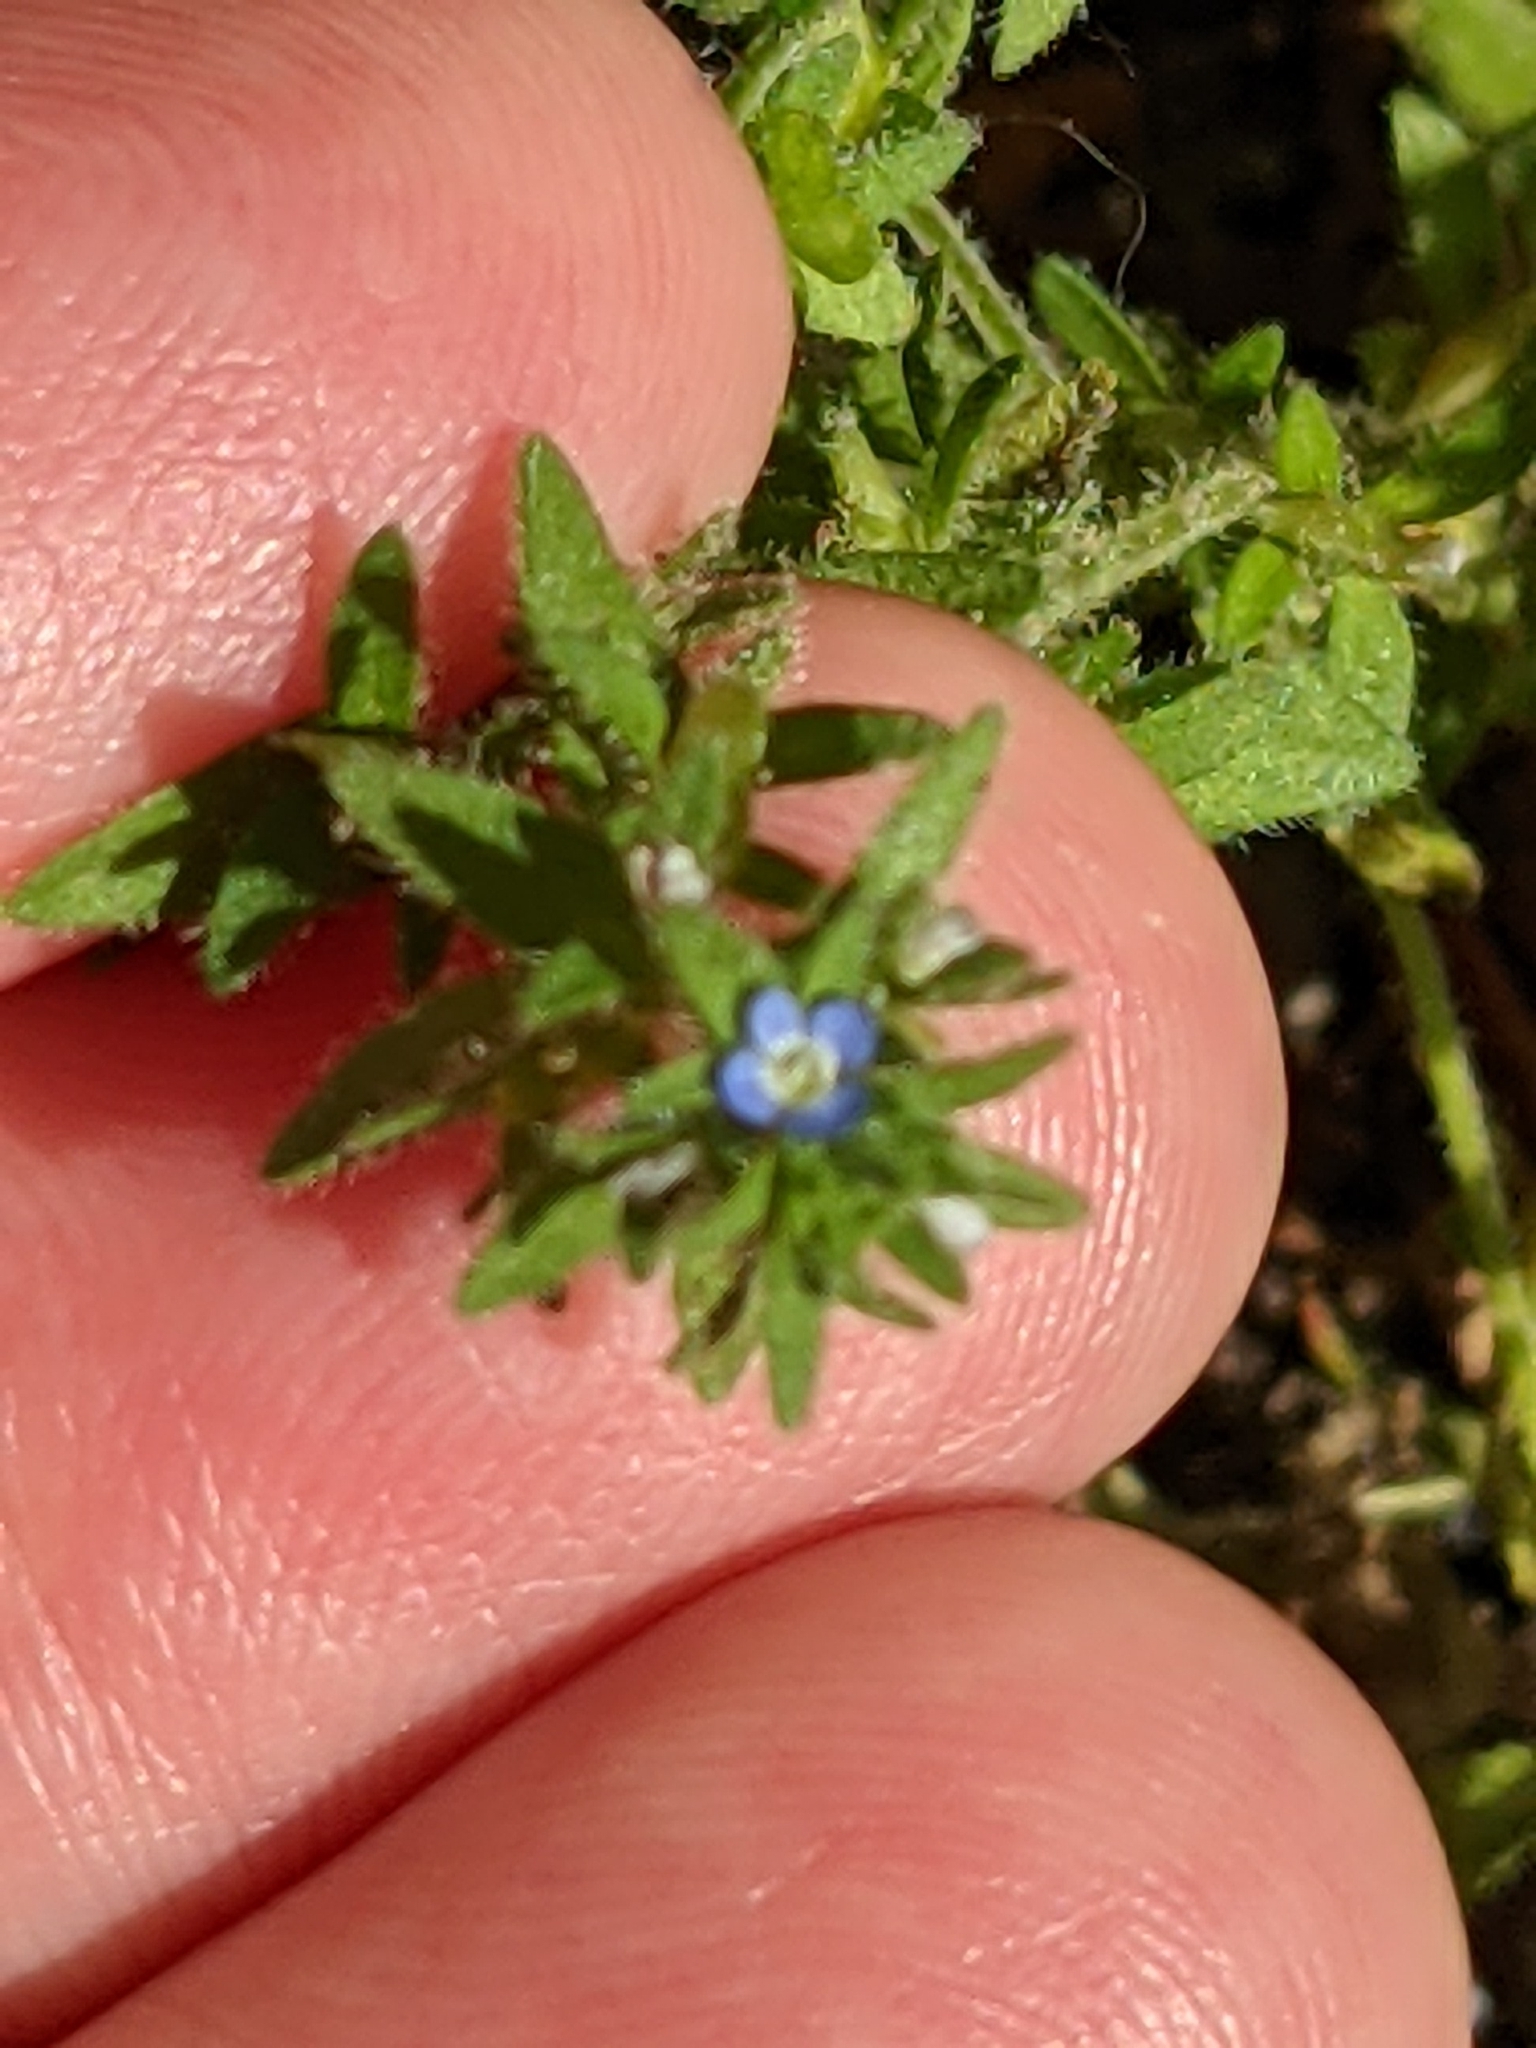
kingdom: Plantae
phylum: Tracheophyta
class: Magnoliopsida
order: Lamiales
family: Plantaginaceae
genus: Veronica
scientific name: Veronica arvensis
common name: Corn speedwell
